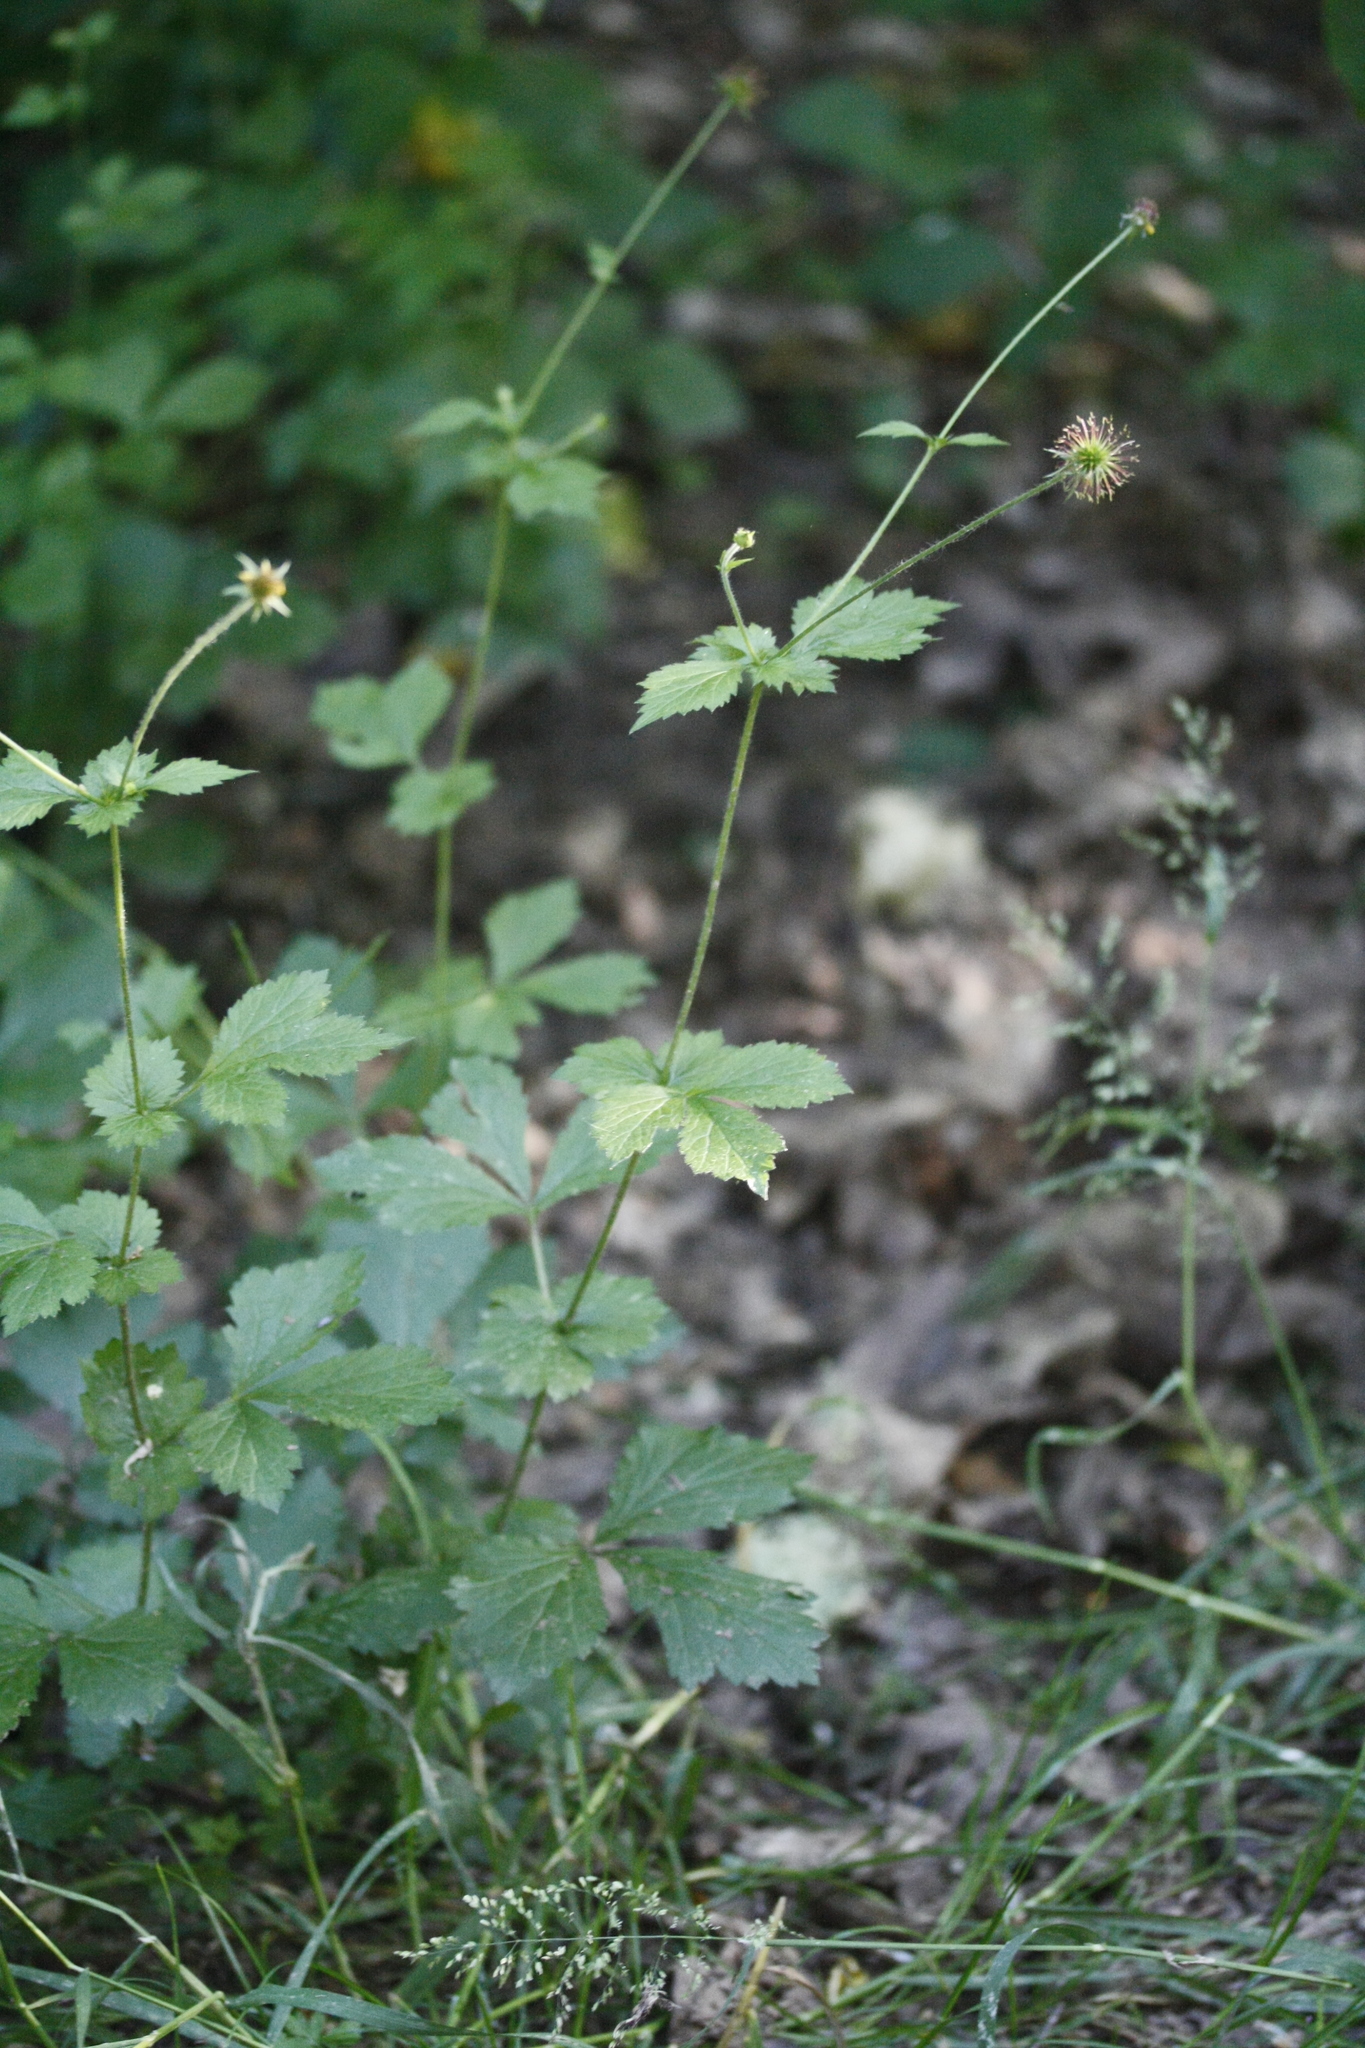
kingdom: Plantae
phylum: Tracheophyta
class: Magnoliopsida
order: Rosales
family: Rosaceae
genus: Geum
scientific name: Geum urbanum
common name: Wood avens
